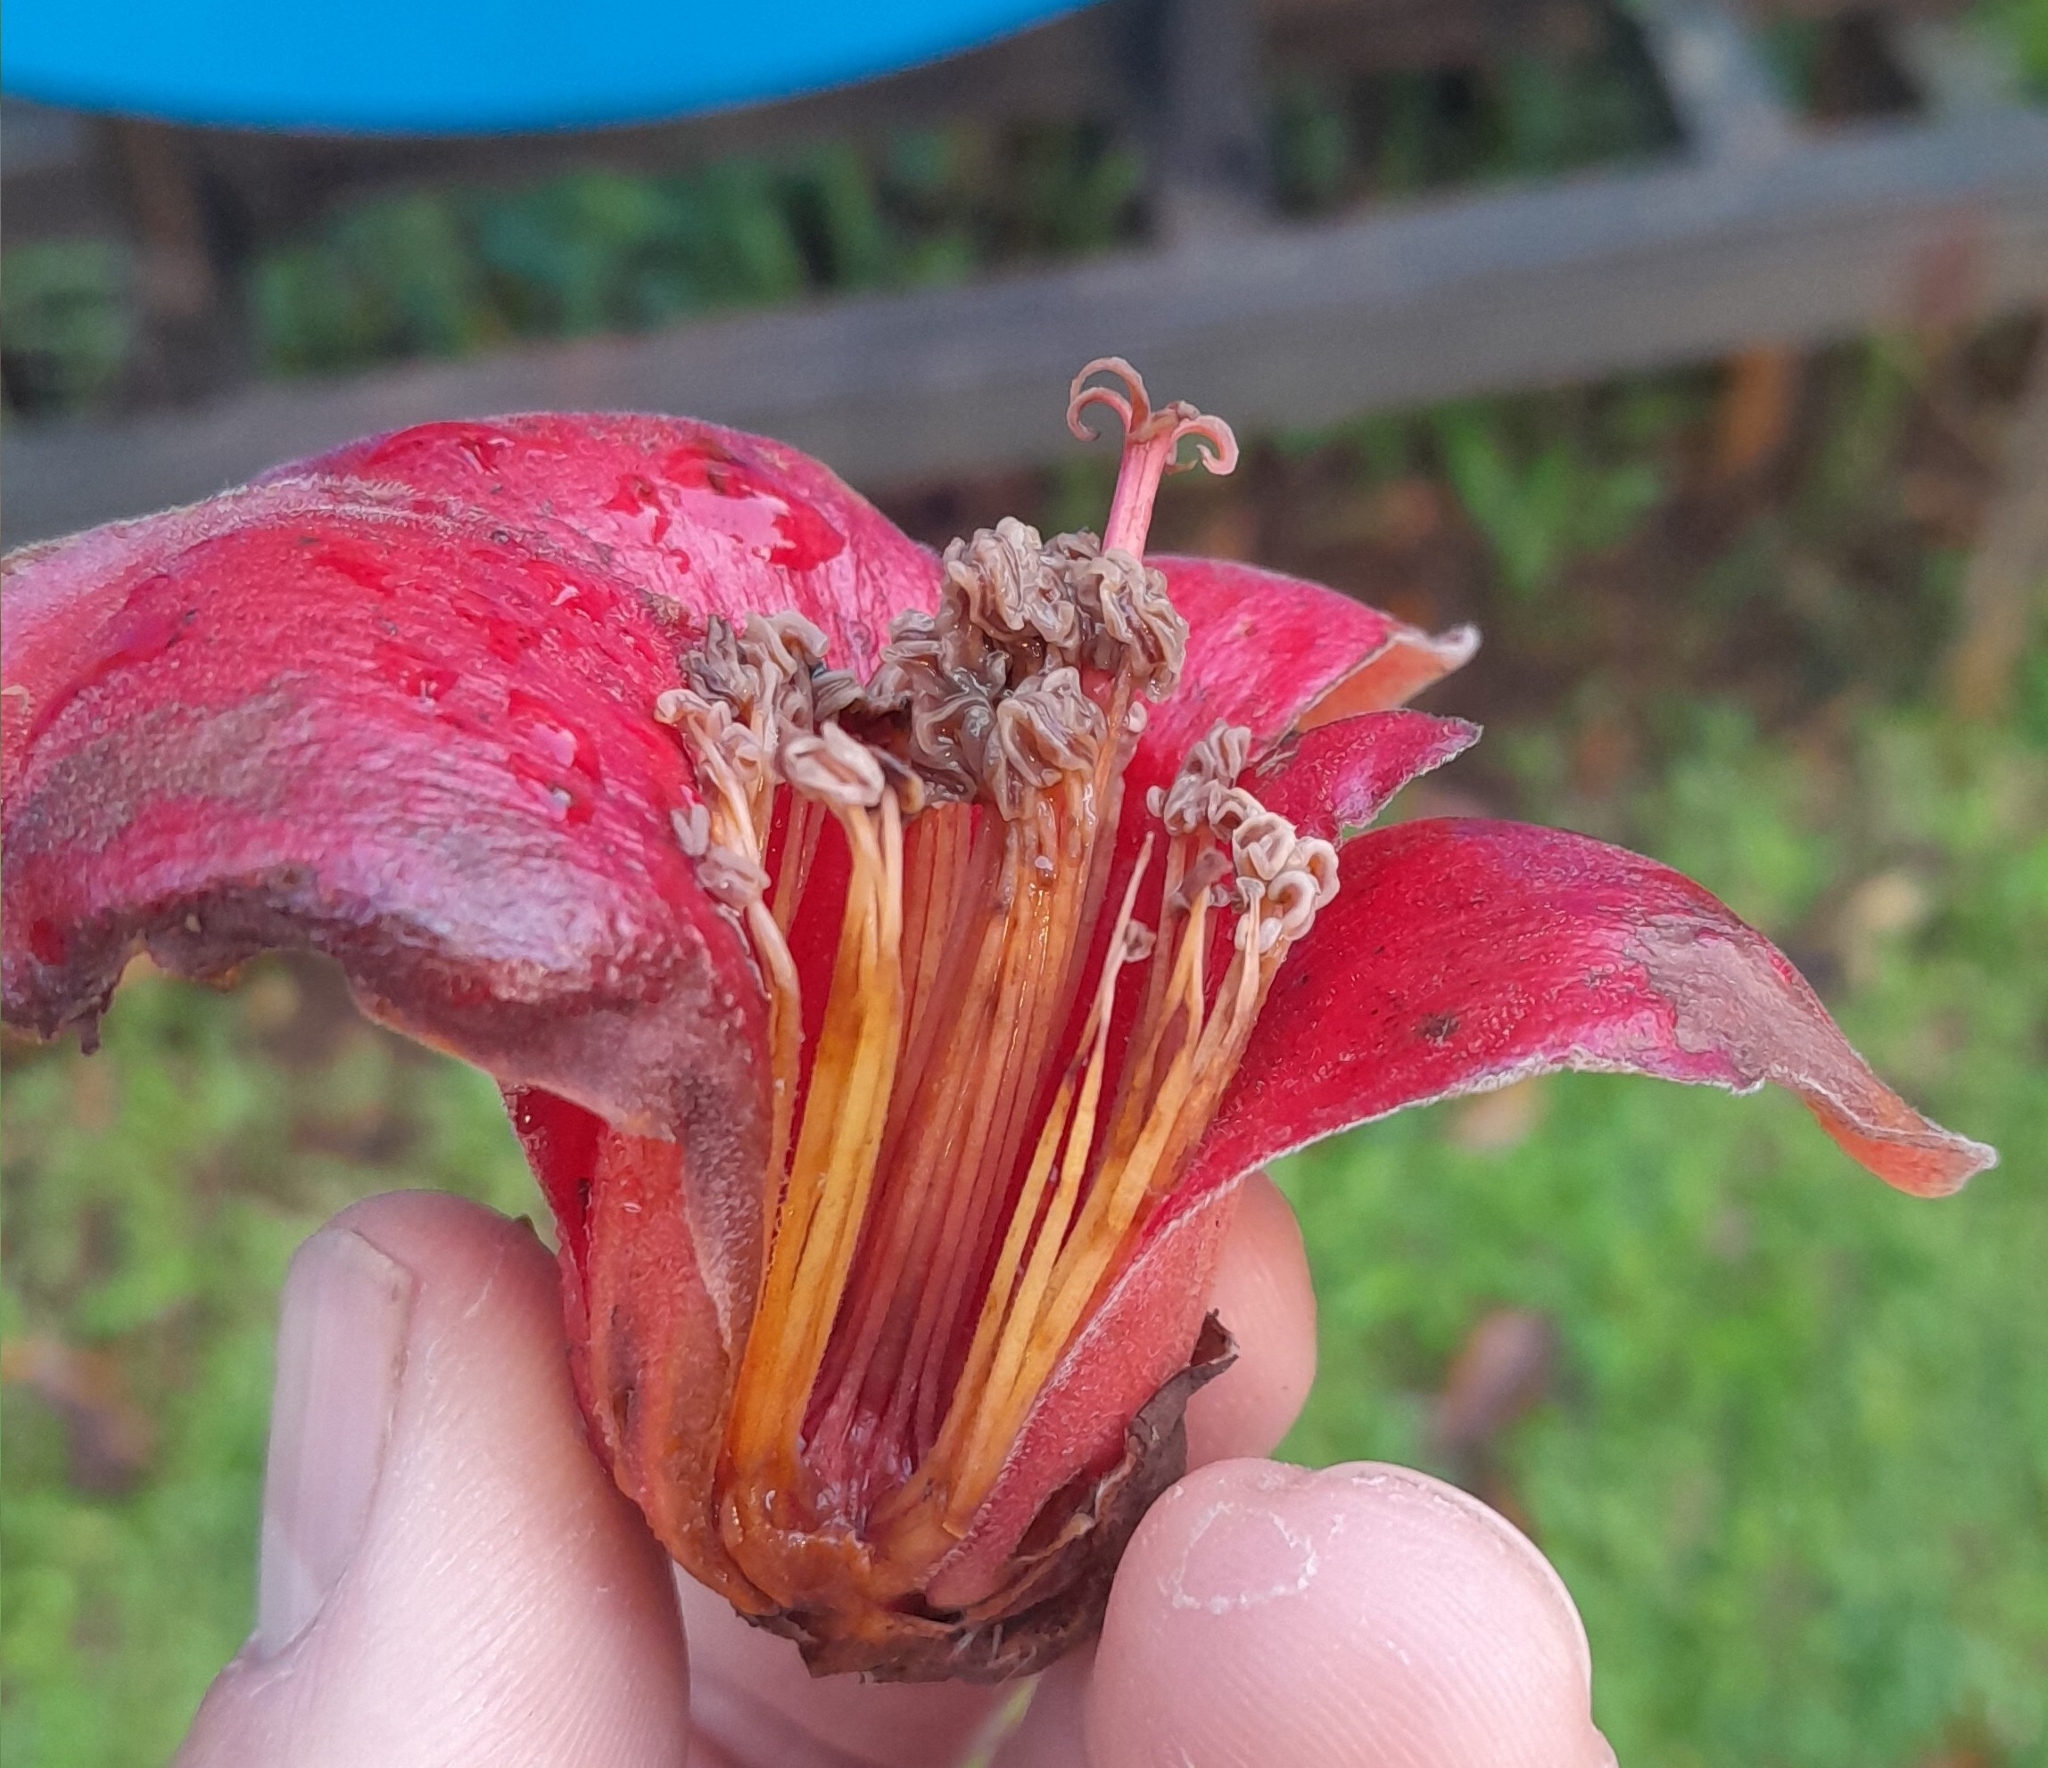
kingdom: Plantae
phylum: Tracheophyta
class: Magnoliopsida
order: Malvales
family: Malvaceae
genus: Bombax
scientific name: Bombax ceiba
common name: Northern-cottonwood
